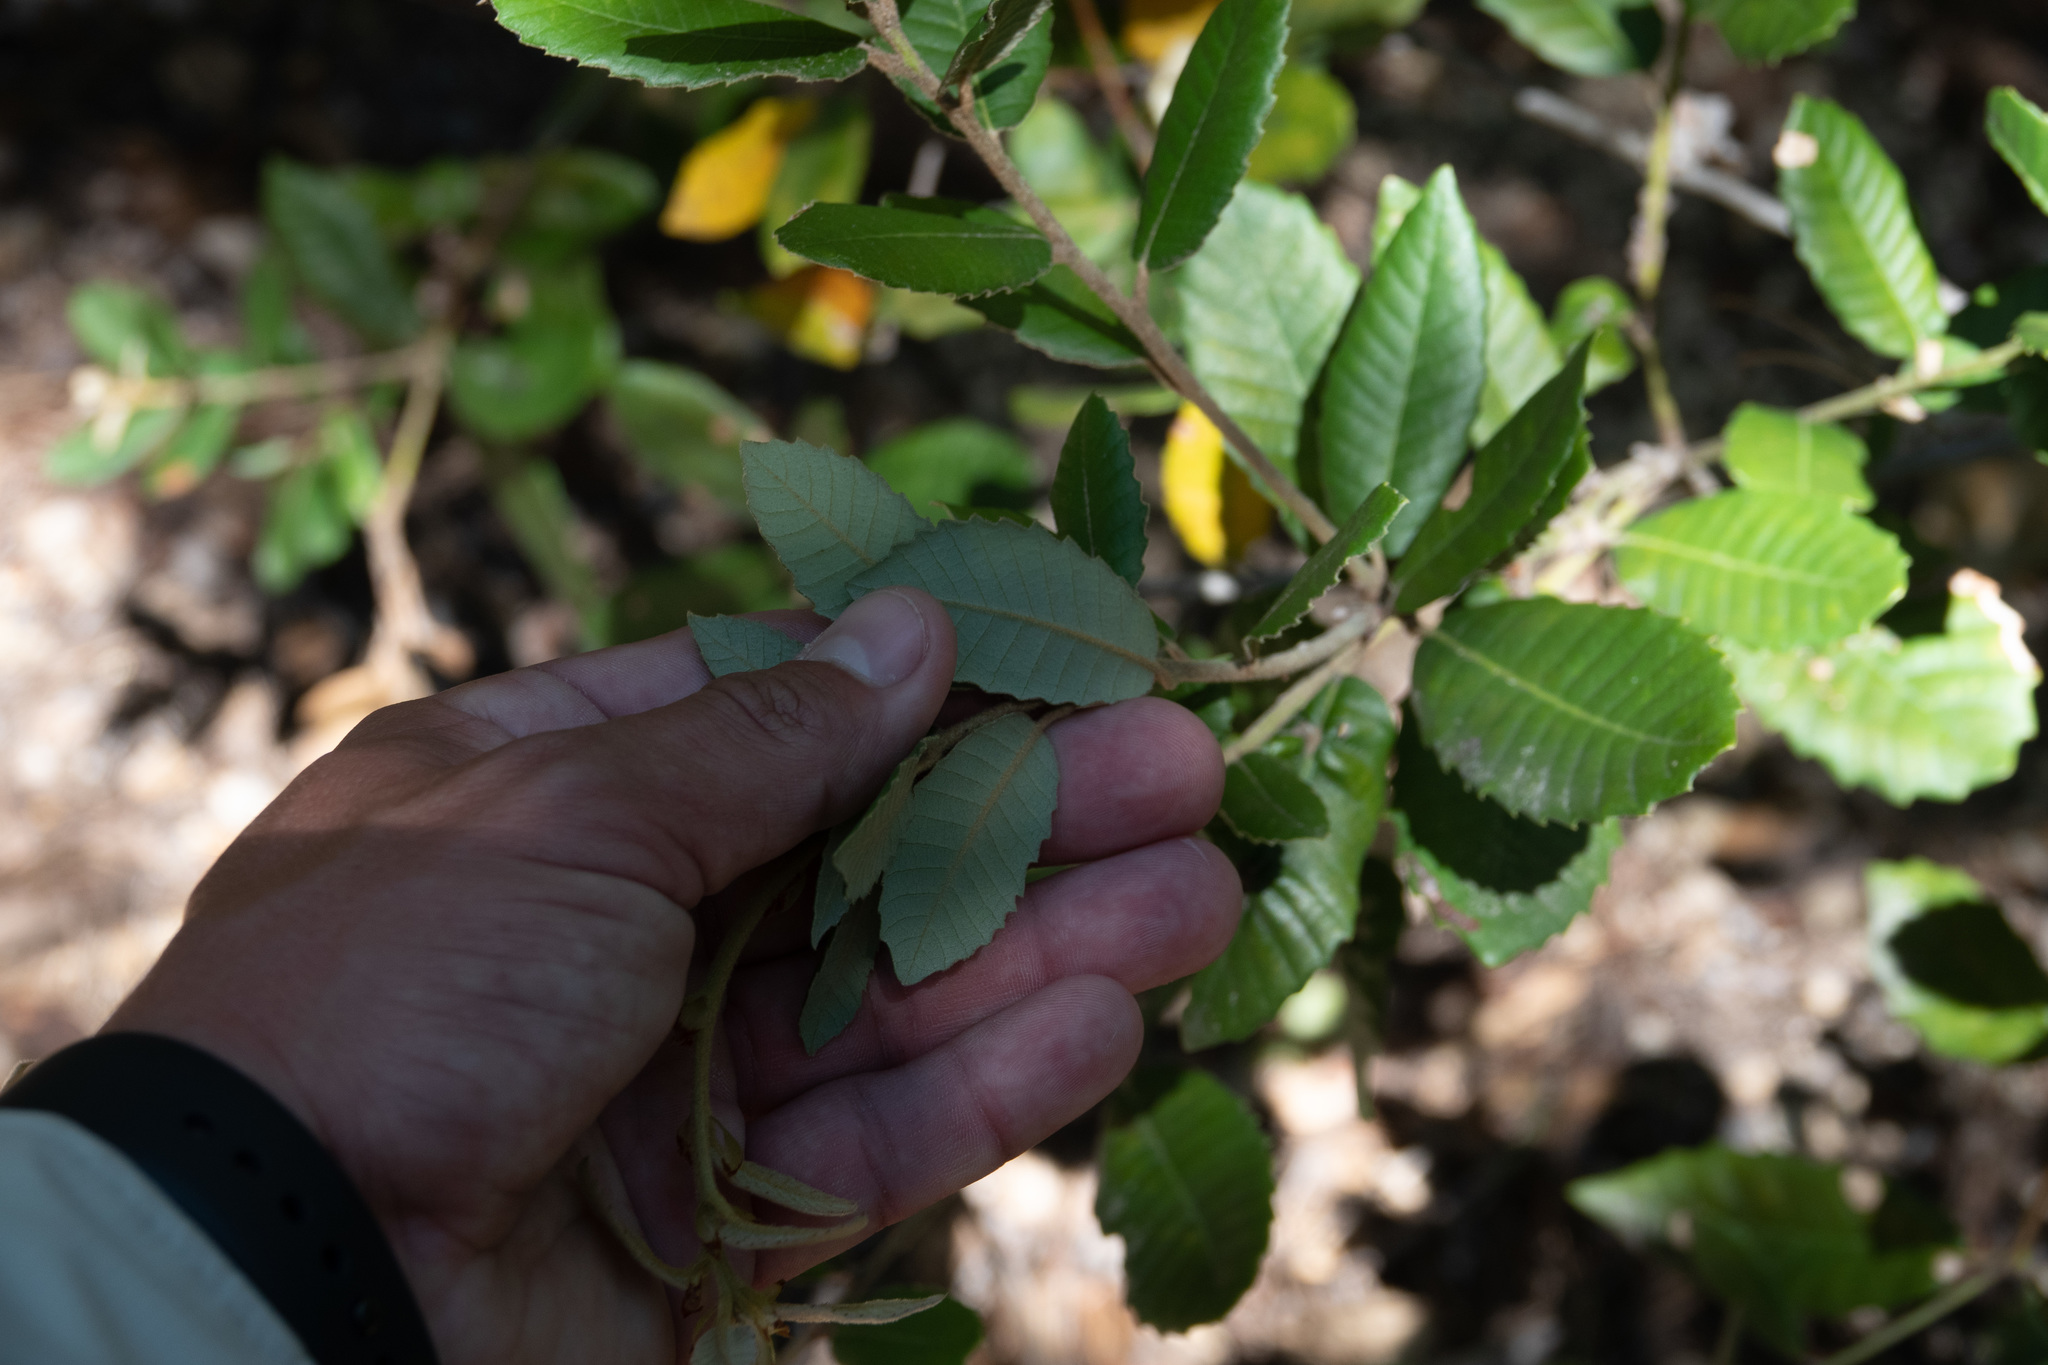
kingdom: Plantae
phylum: Tracheophyta
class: Magnoliopsida
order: Fagales
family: Fagaceae
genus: Notholithocarpus
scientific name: Notholithocarpus densiflorus
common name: Tan bark oak
